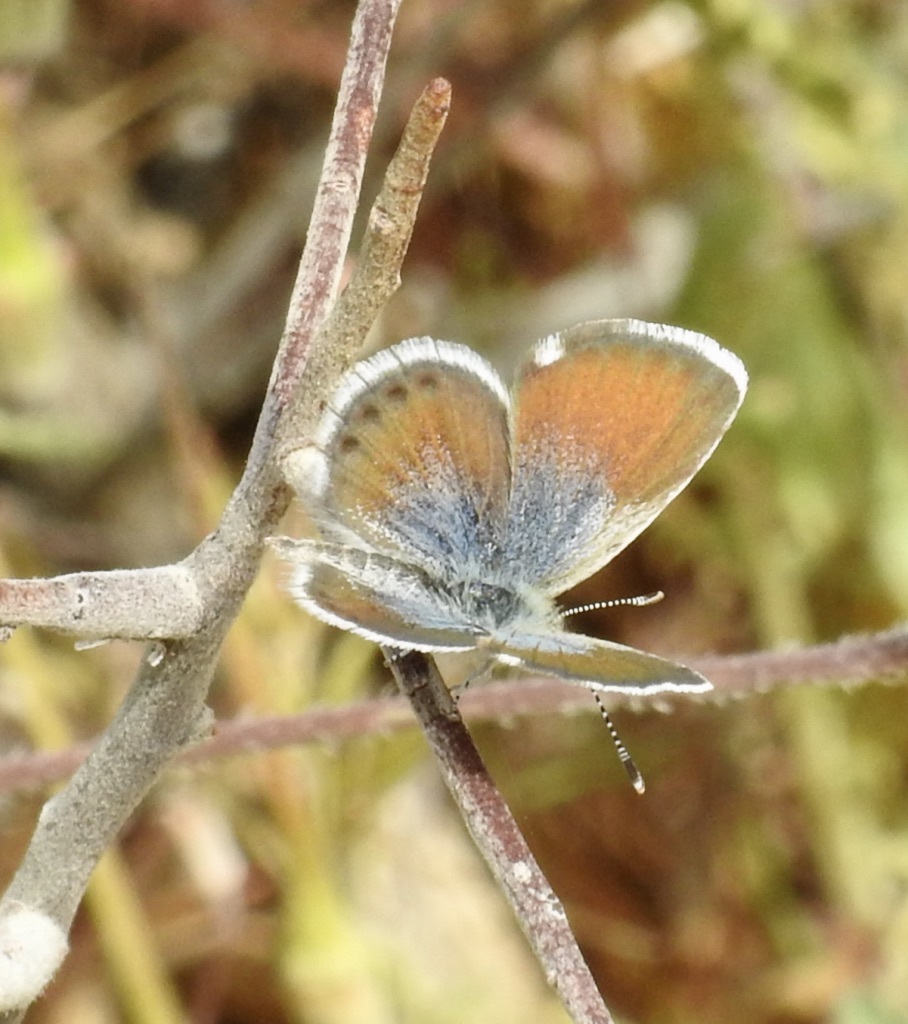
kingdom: Animalia
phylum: Arthropoda
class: Insecta
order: Lepidoptera
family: Lycaenidae
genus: Brephidium
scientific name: Brephidium exilis
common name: Pygmy blue
